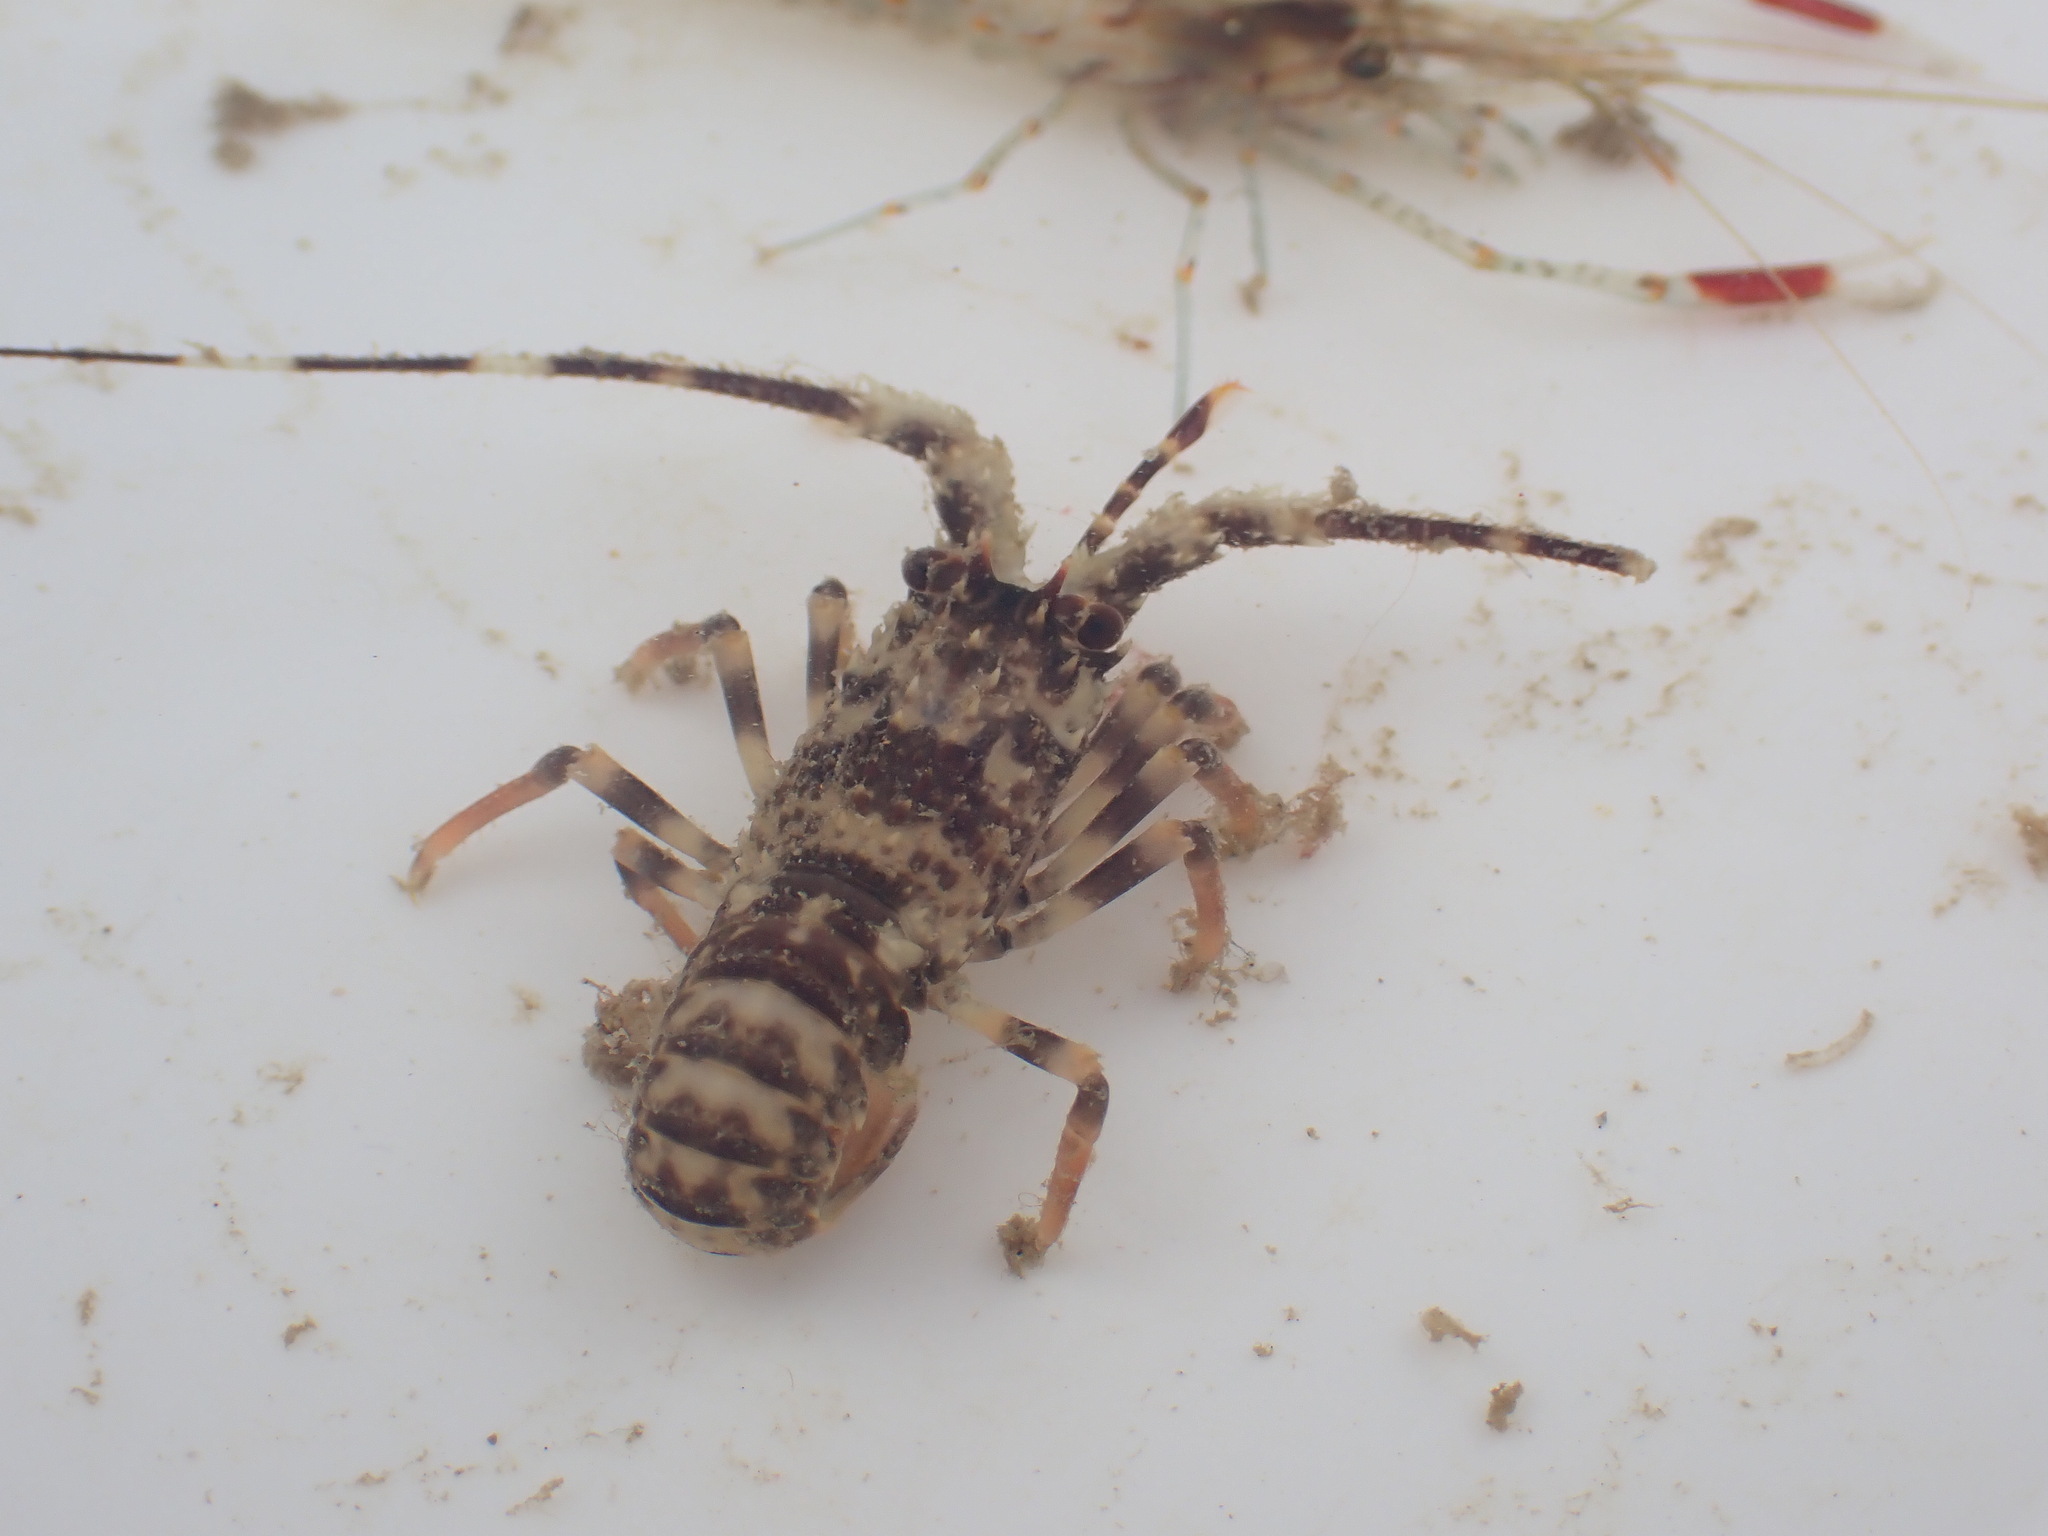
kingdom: Animalia
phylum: Arthropoda
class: Malacostraca
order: Decapoda
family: Palinuridae
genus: Jasus
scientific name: Jasus edwardsii
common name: Red rock lobster
